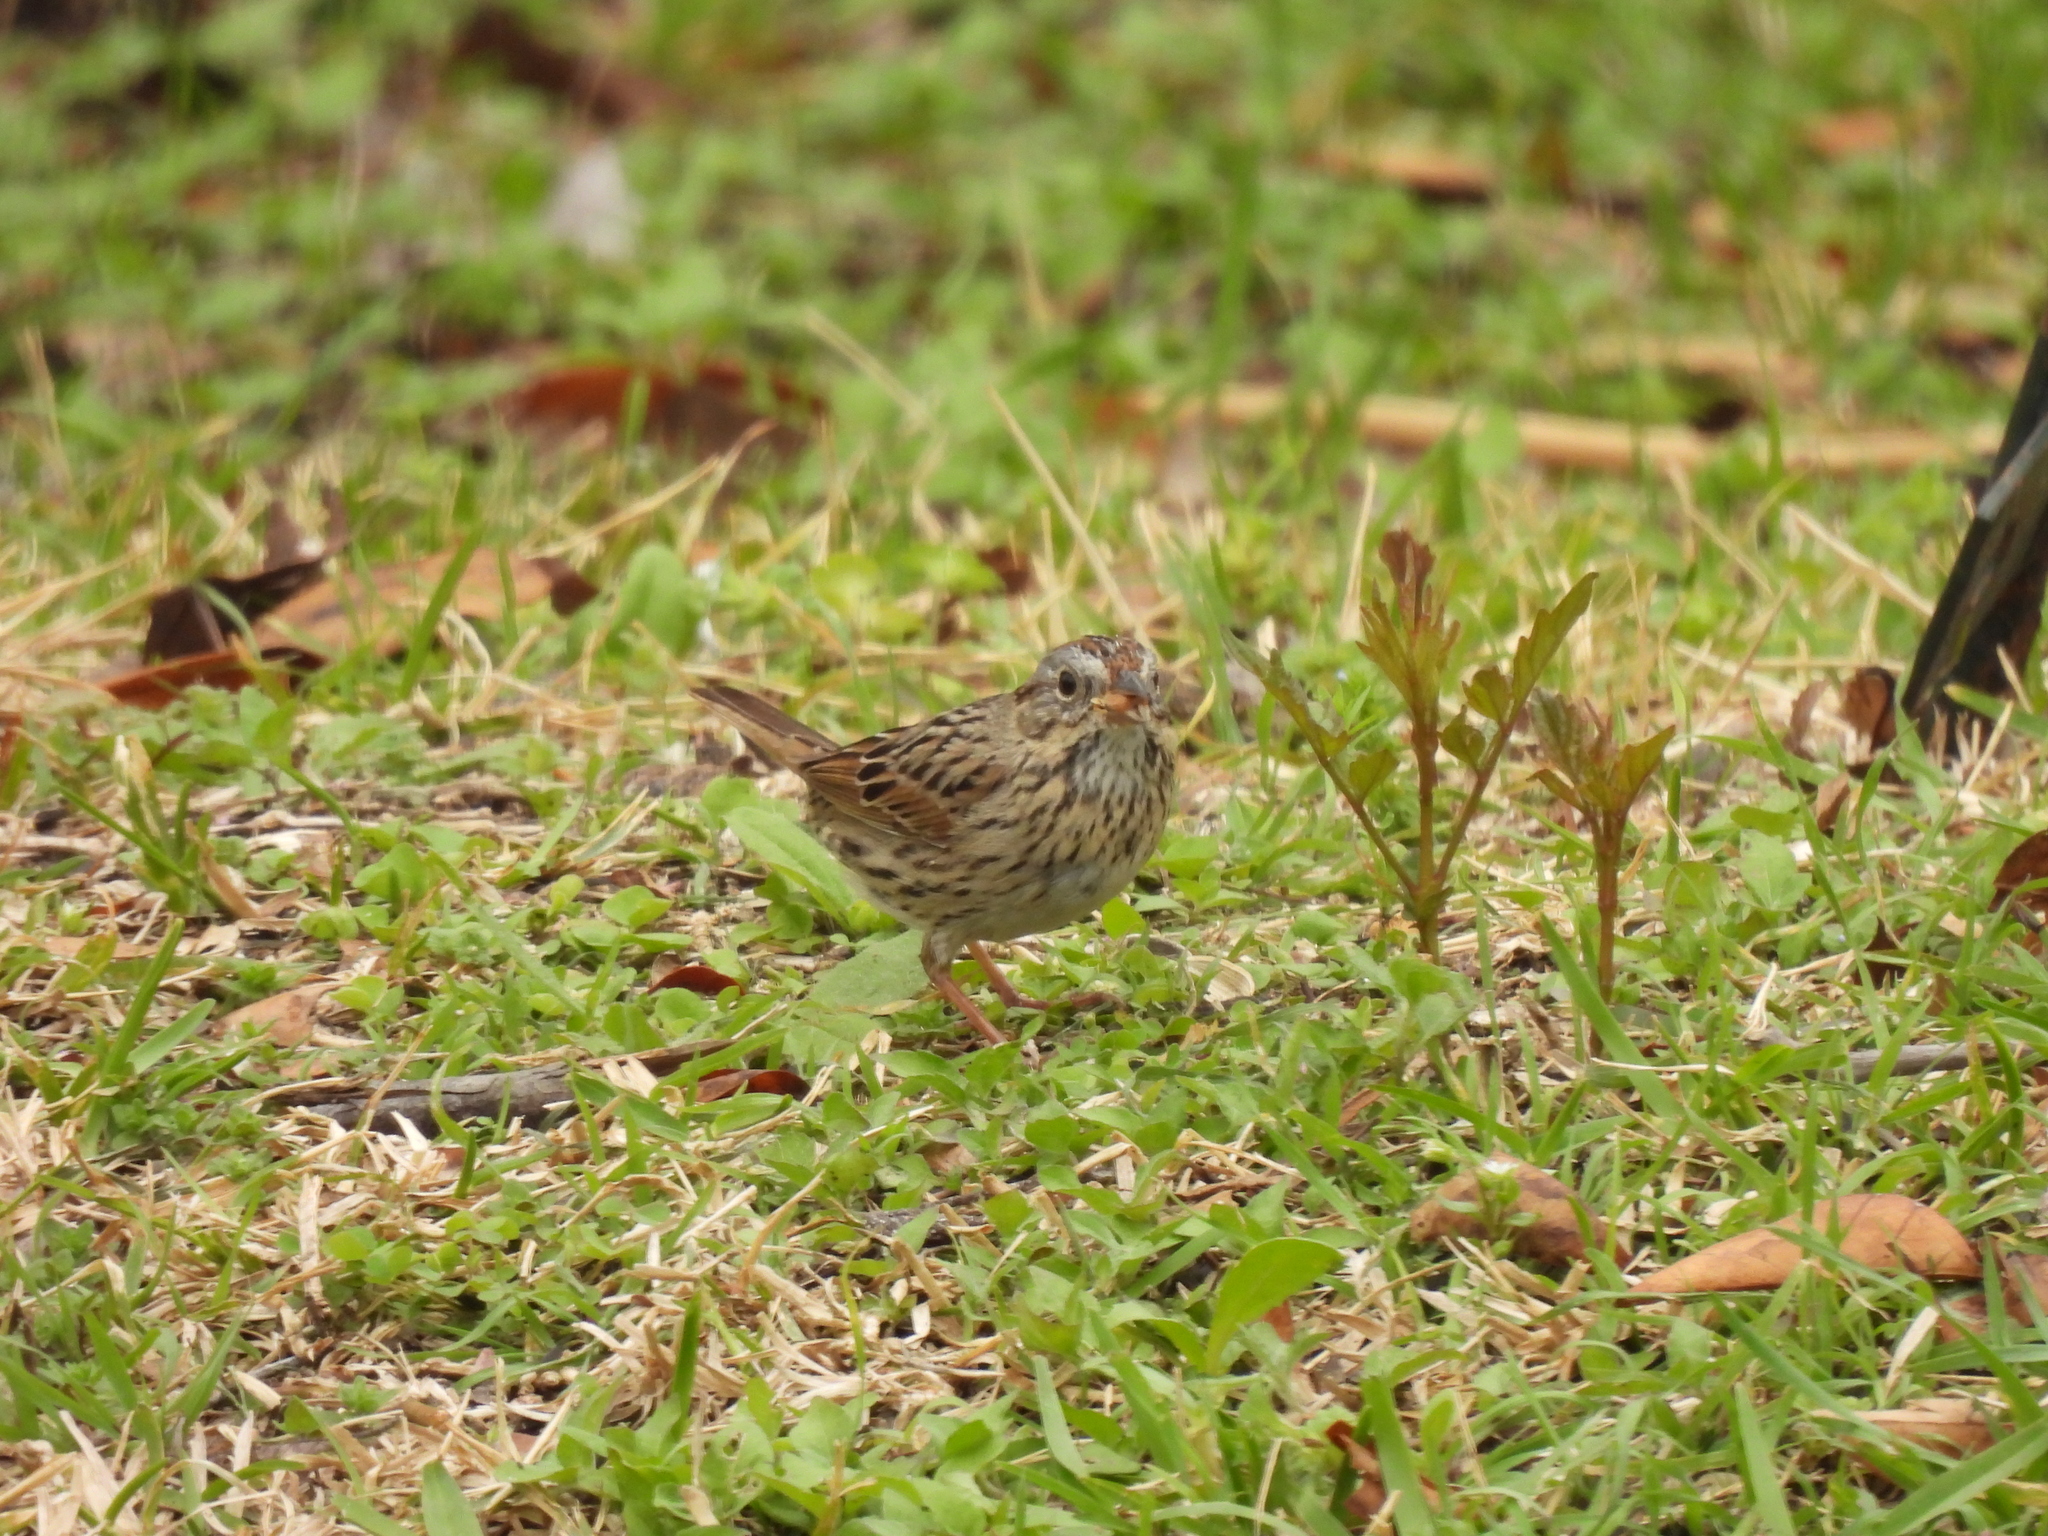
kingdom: Animalia
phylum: Chordata
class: Aves
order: Passeriformes
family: Passerellidae
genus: Melospiza
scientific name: Melospiza lincolnii
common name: Lincoln's sparrow
